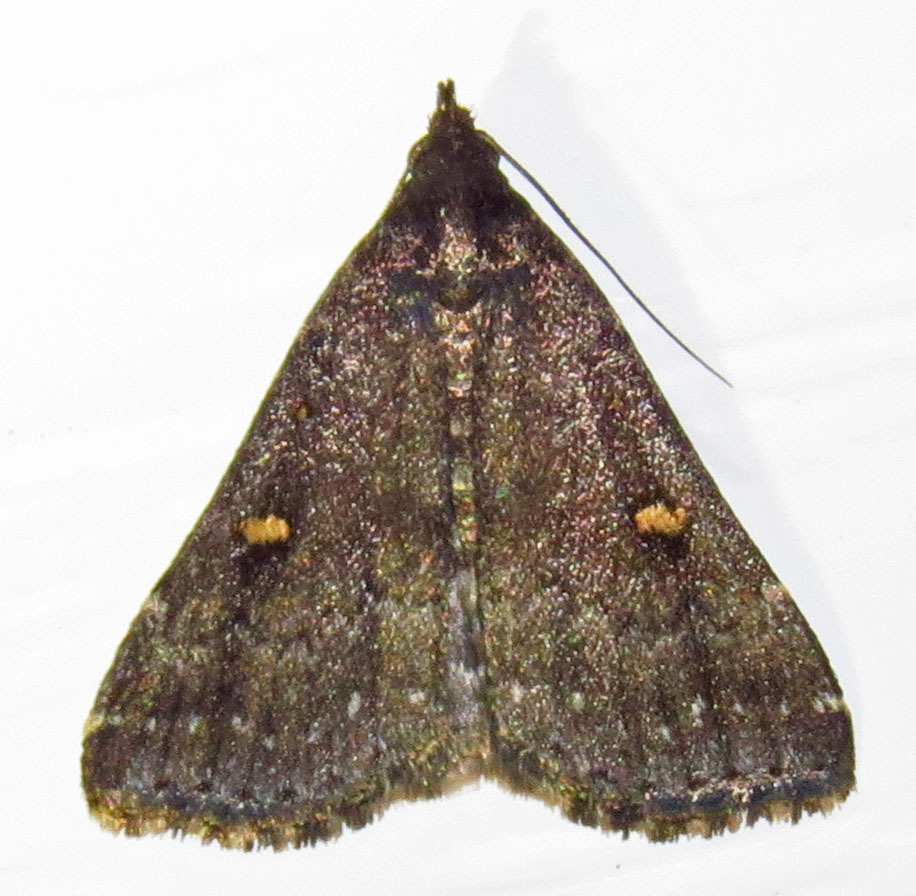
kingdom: Animalia
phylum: Arthropoda
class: Insecta
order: Lepidoptera
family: Erebidae
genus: Tetanolita
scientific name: Tetanolita mynesalis
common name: Smoky tetanolita moth
